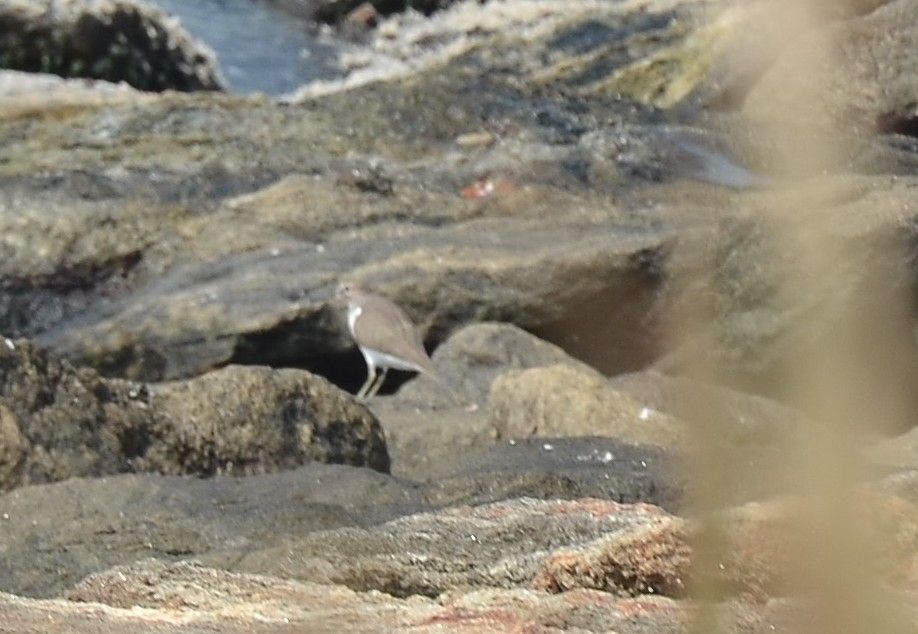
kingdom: Animalia
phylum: Chordata
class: Aves
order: Charadriiformes
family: Scolopacidae
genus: Actitis
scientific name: Actitis hypoleucos
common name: Common sandpiper
